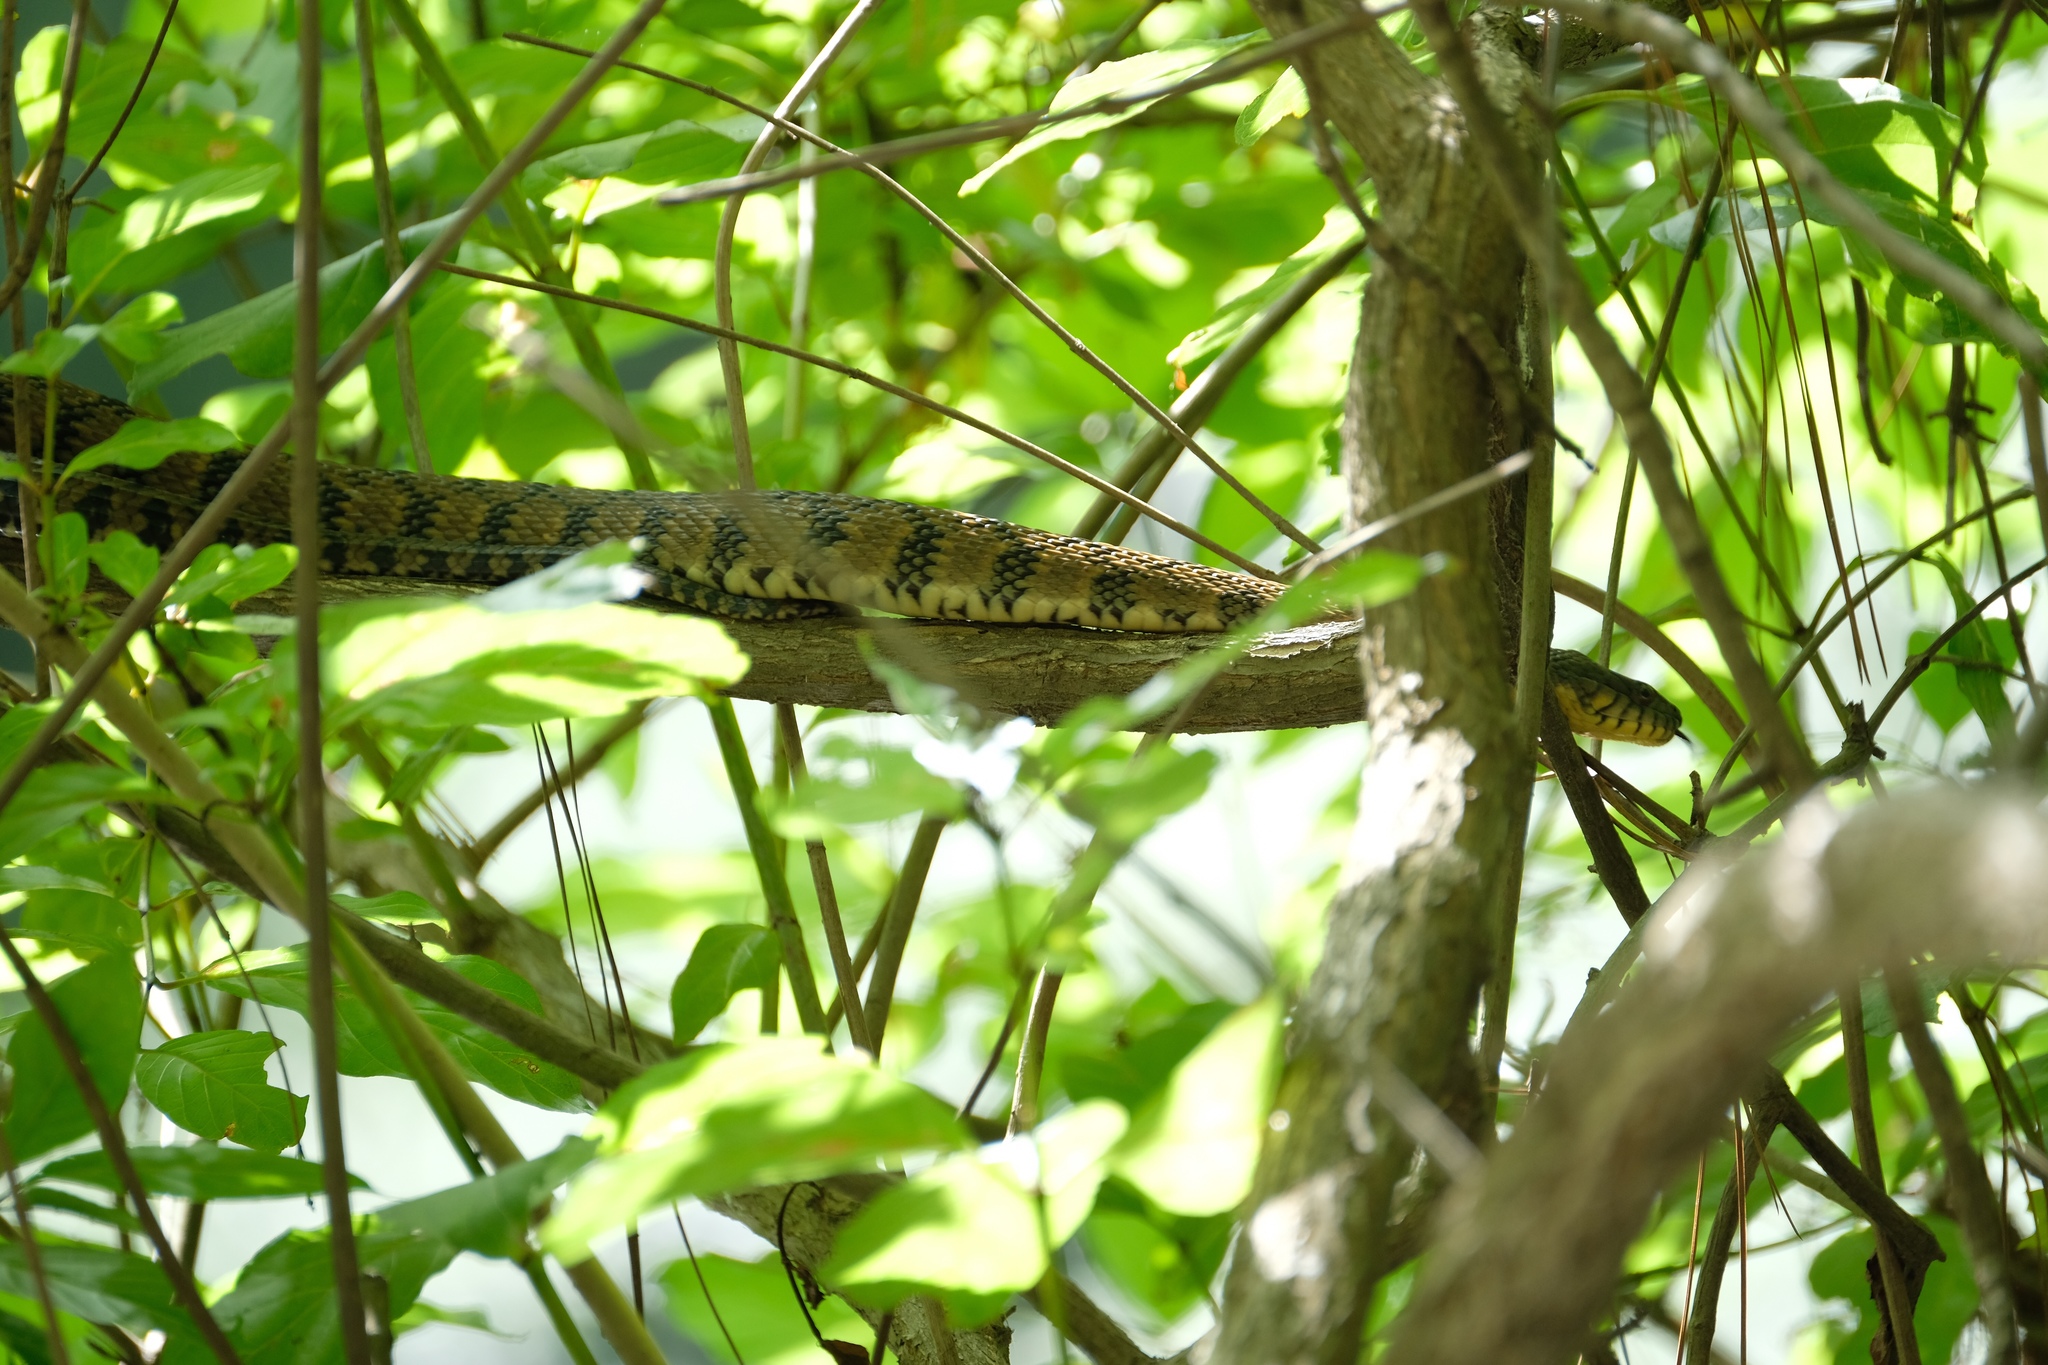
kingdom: Animalia
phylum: Chordata
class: Squamata
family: Colubridae
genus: Nerodia
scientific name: Nerodia rhombifer
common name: Diamondback water snake
